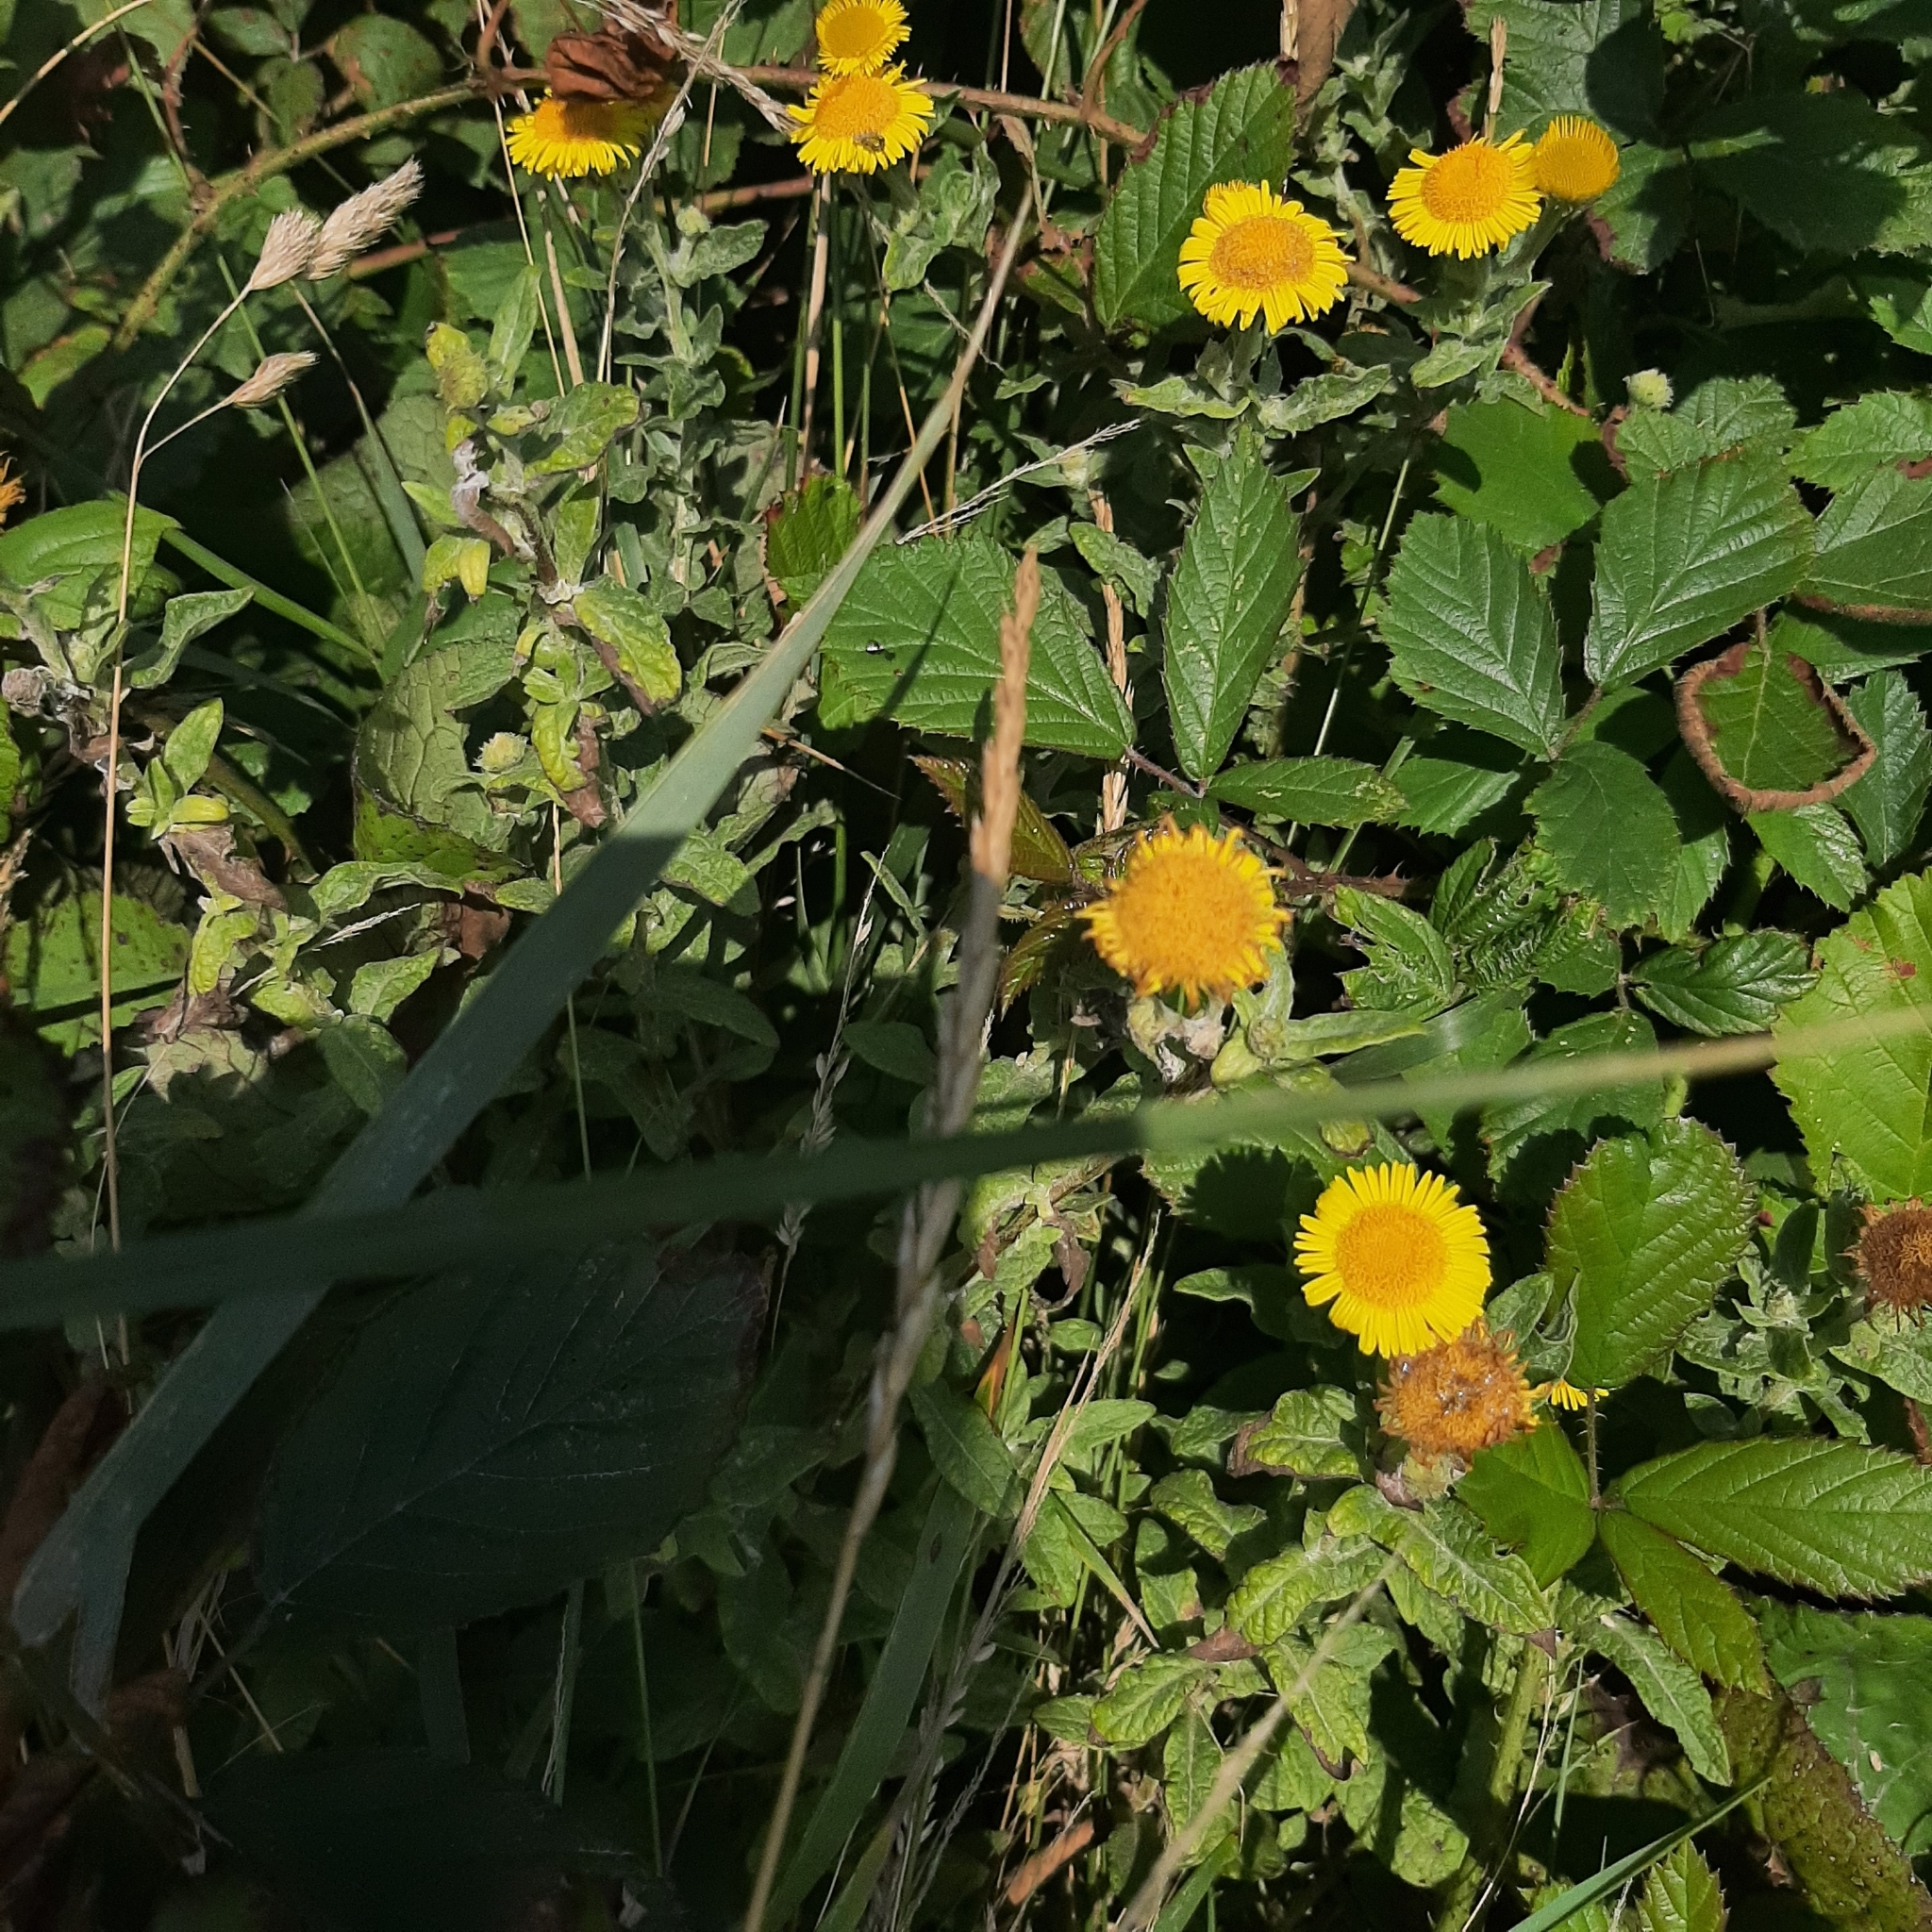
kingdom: Plantae
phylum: Tracheophyta
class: Magnoliopsida
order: Asterales
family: Asteraceae
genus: Pulicaria
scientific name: Pulicaria dysenterica
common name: Common fleabane
